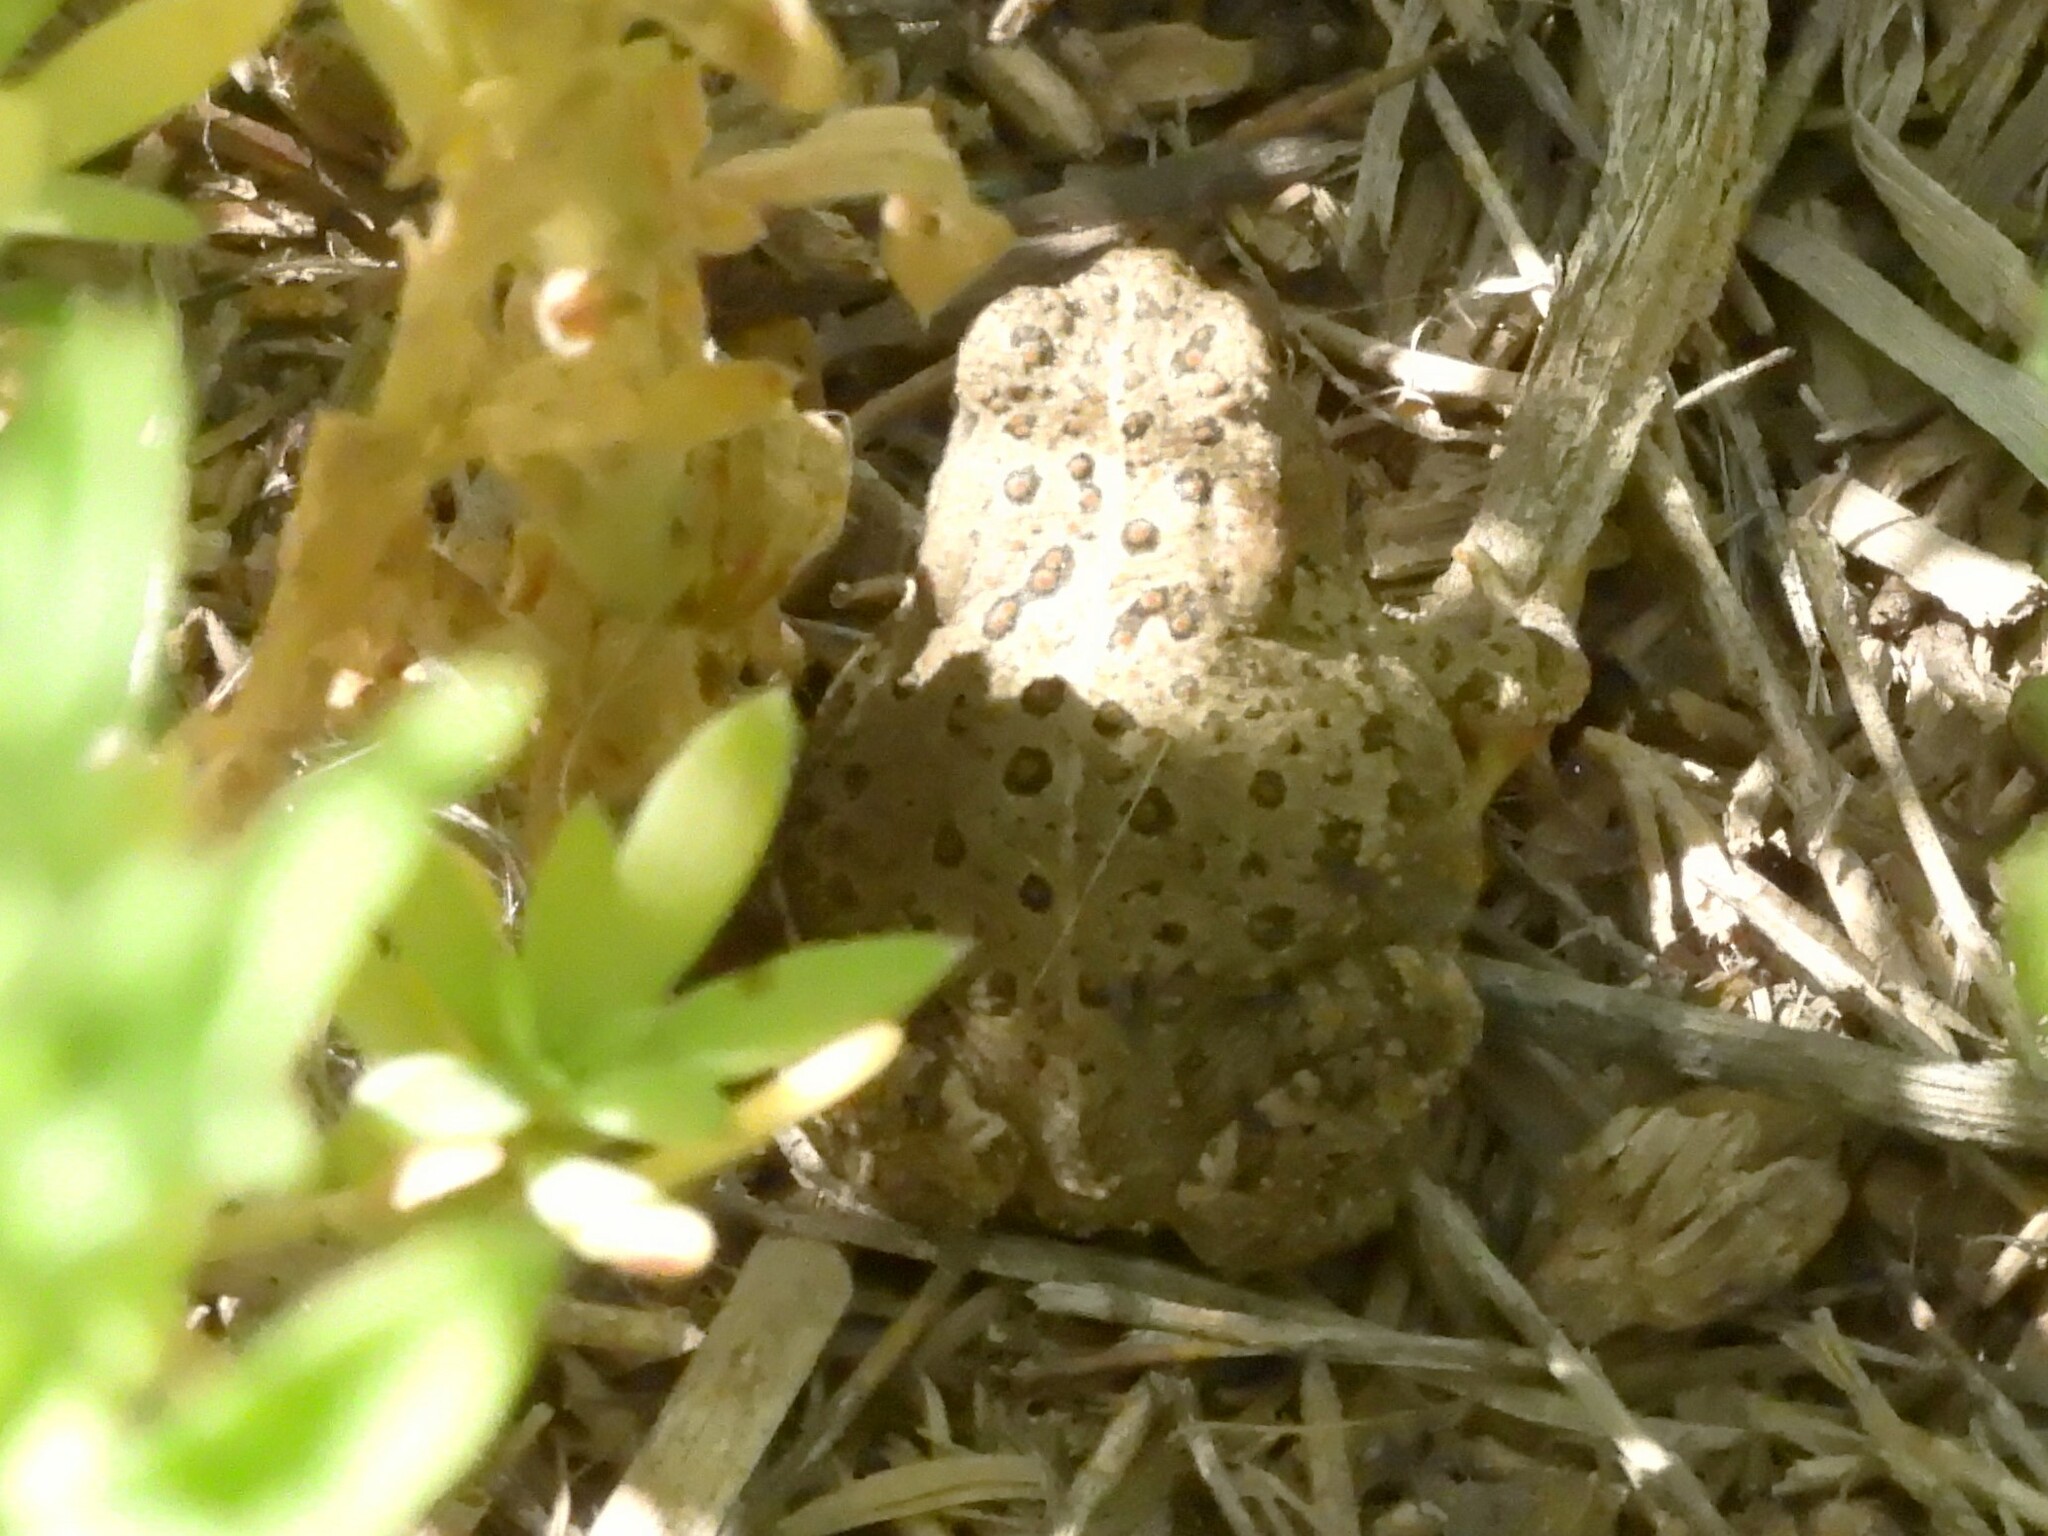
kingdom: Animalia
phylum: Chordata
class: Amphibia
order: Anura
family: Bufonidae
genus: Anaxyrus
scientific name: Anaxyrus woodhousii
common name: Woodhouse's toad
